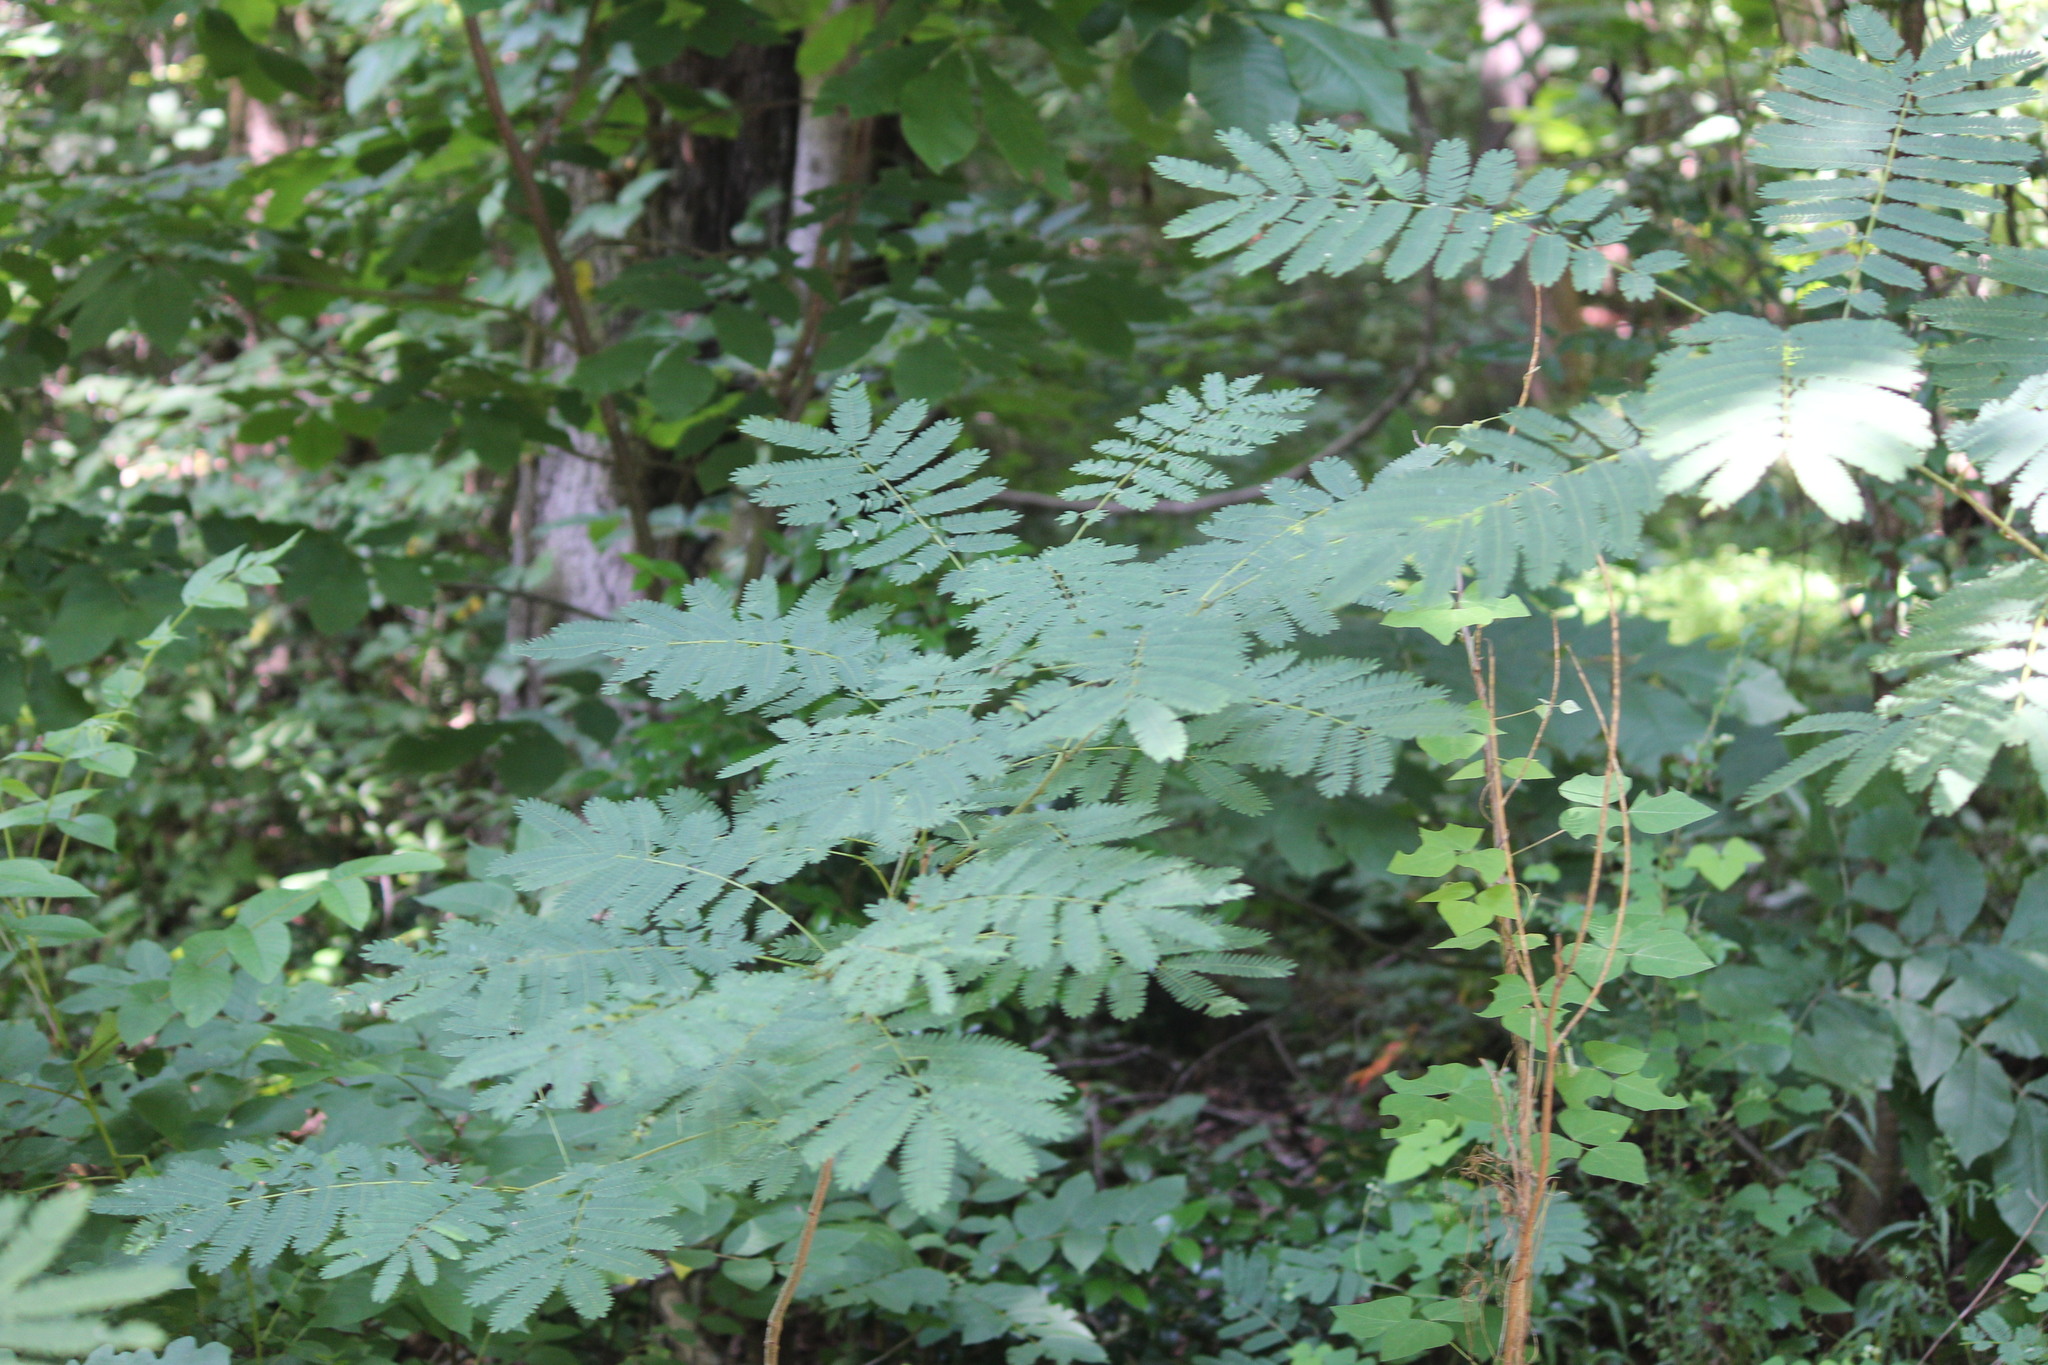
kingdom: Plantae
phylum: Tracheophyta
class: Magnoliopsida
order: Fabales
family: Fabaceae
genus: Albizia
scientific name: Albizia julibrissin
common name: Silktree
